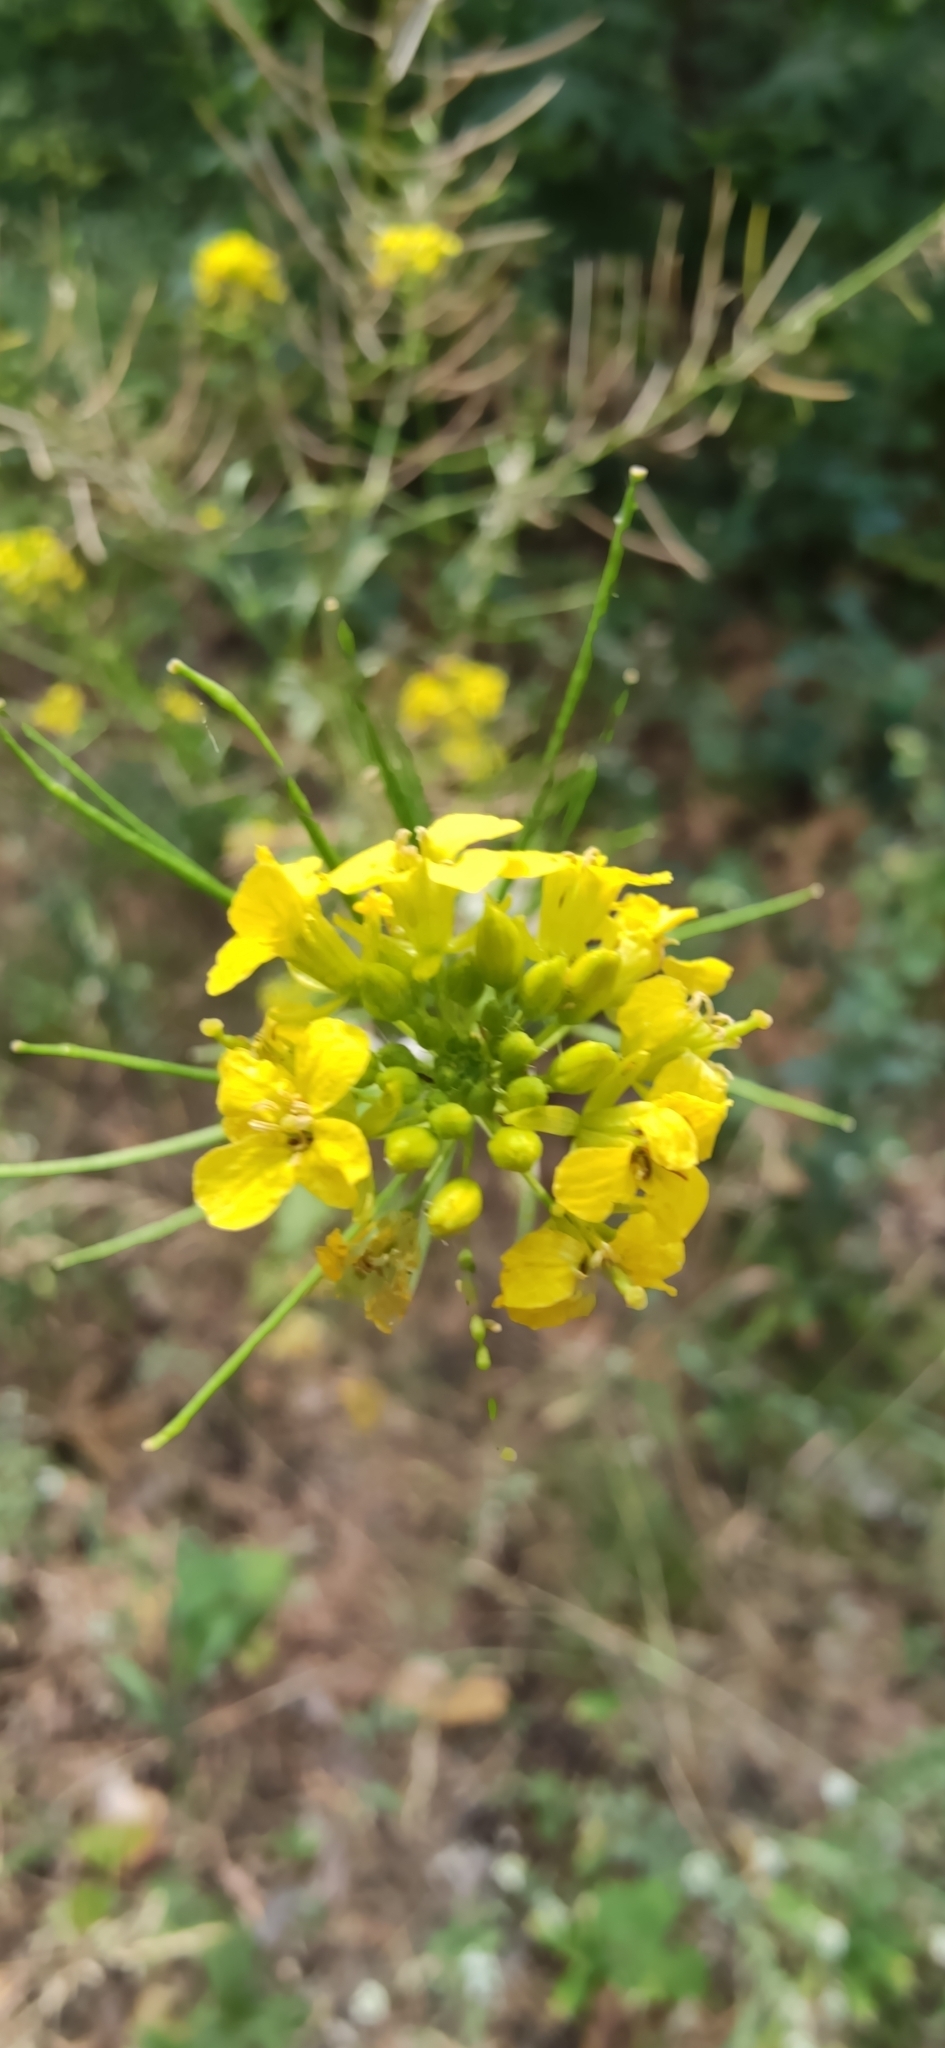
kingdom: Plantae
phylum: Tracheophyta
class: Magnoliopsida
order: Brassicales
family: Brassicaceae
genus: Sisymbrium
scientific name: Sisymbrium loeselii
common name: False london-rocket
